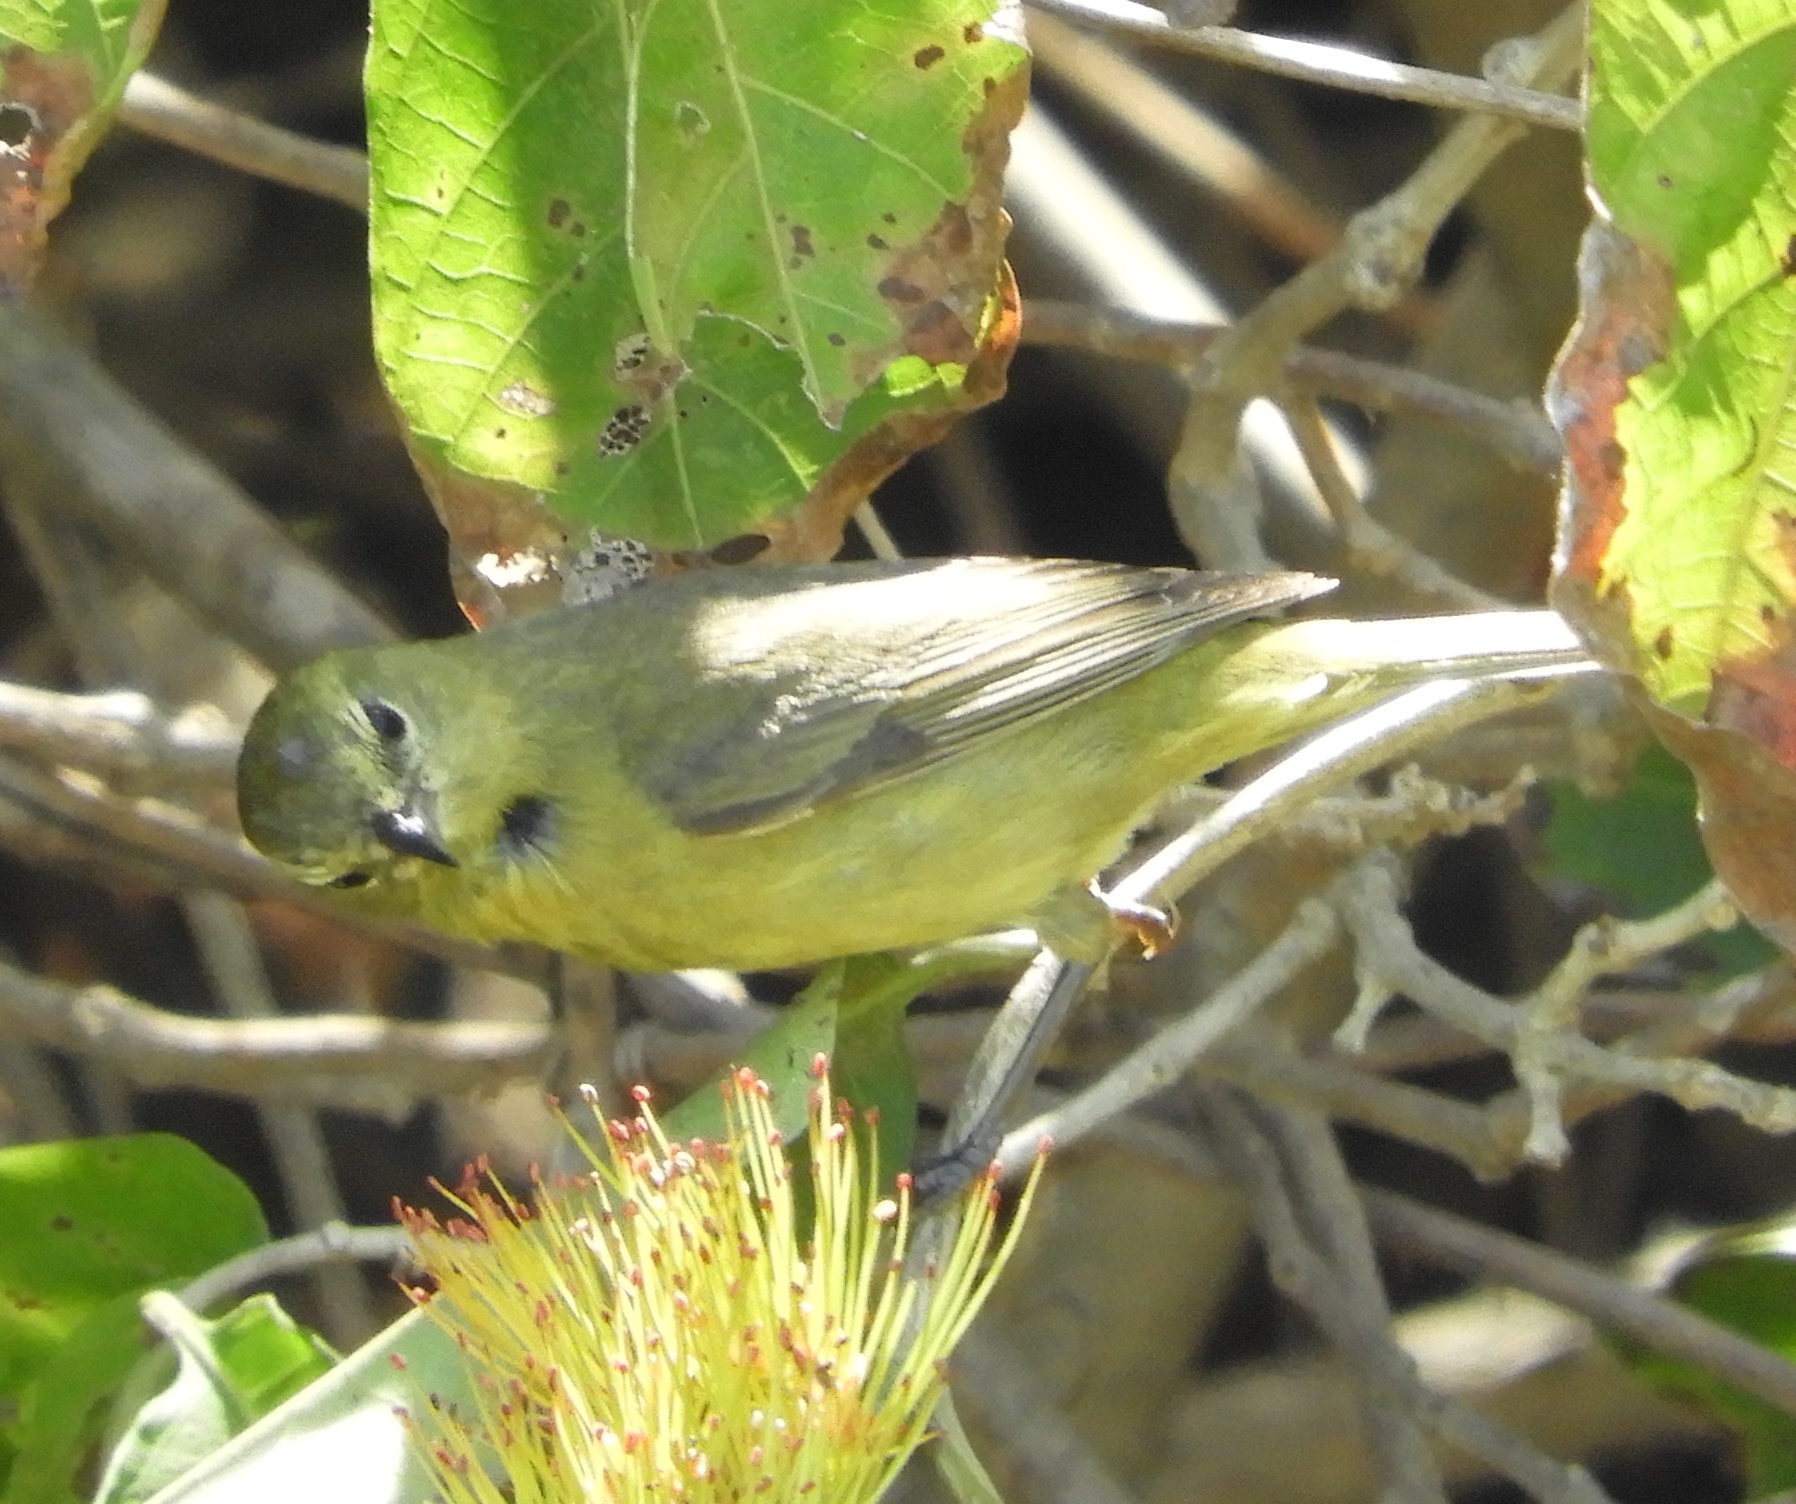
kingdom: Animalia
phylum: Chordata
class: Aves
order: Passeriformes
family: Parulidae
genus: Leiothlypis
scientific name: Leiothlypis celata
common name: Orange-crowned warbler
